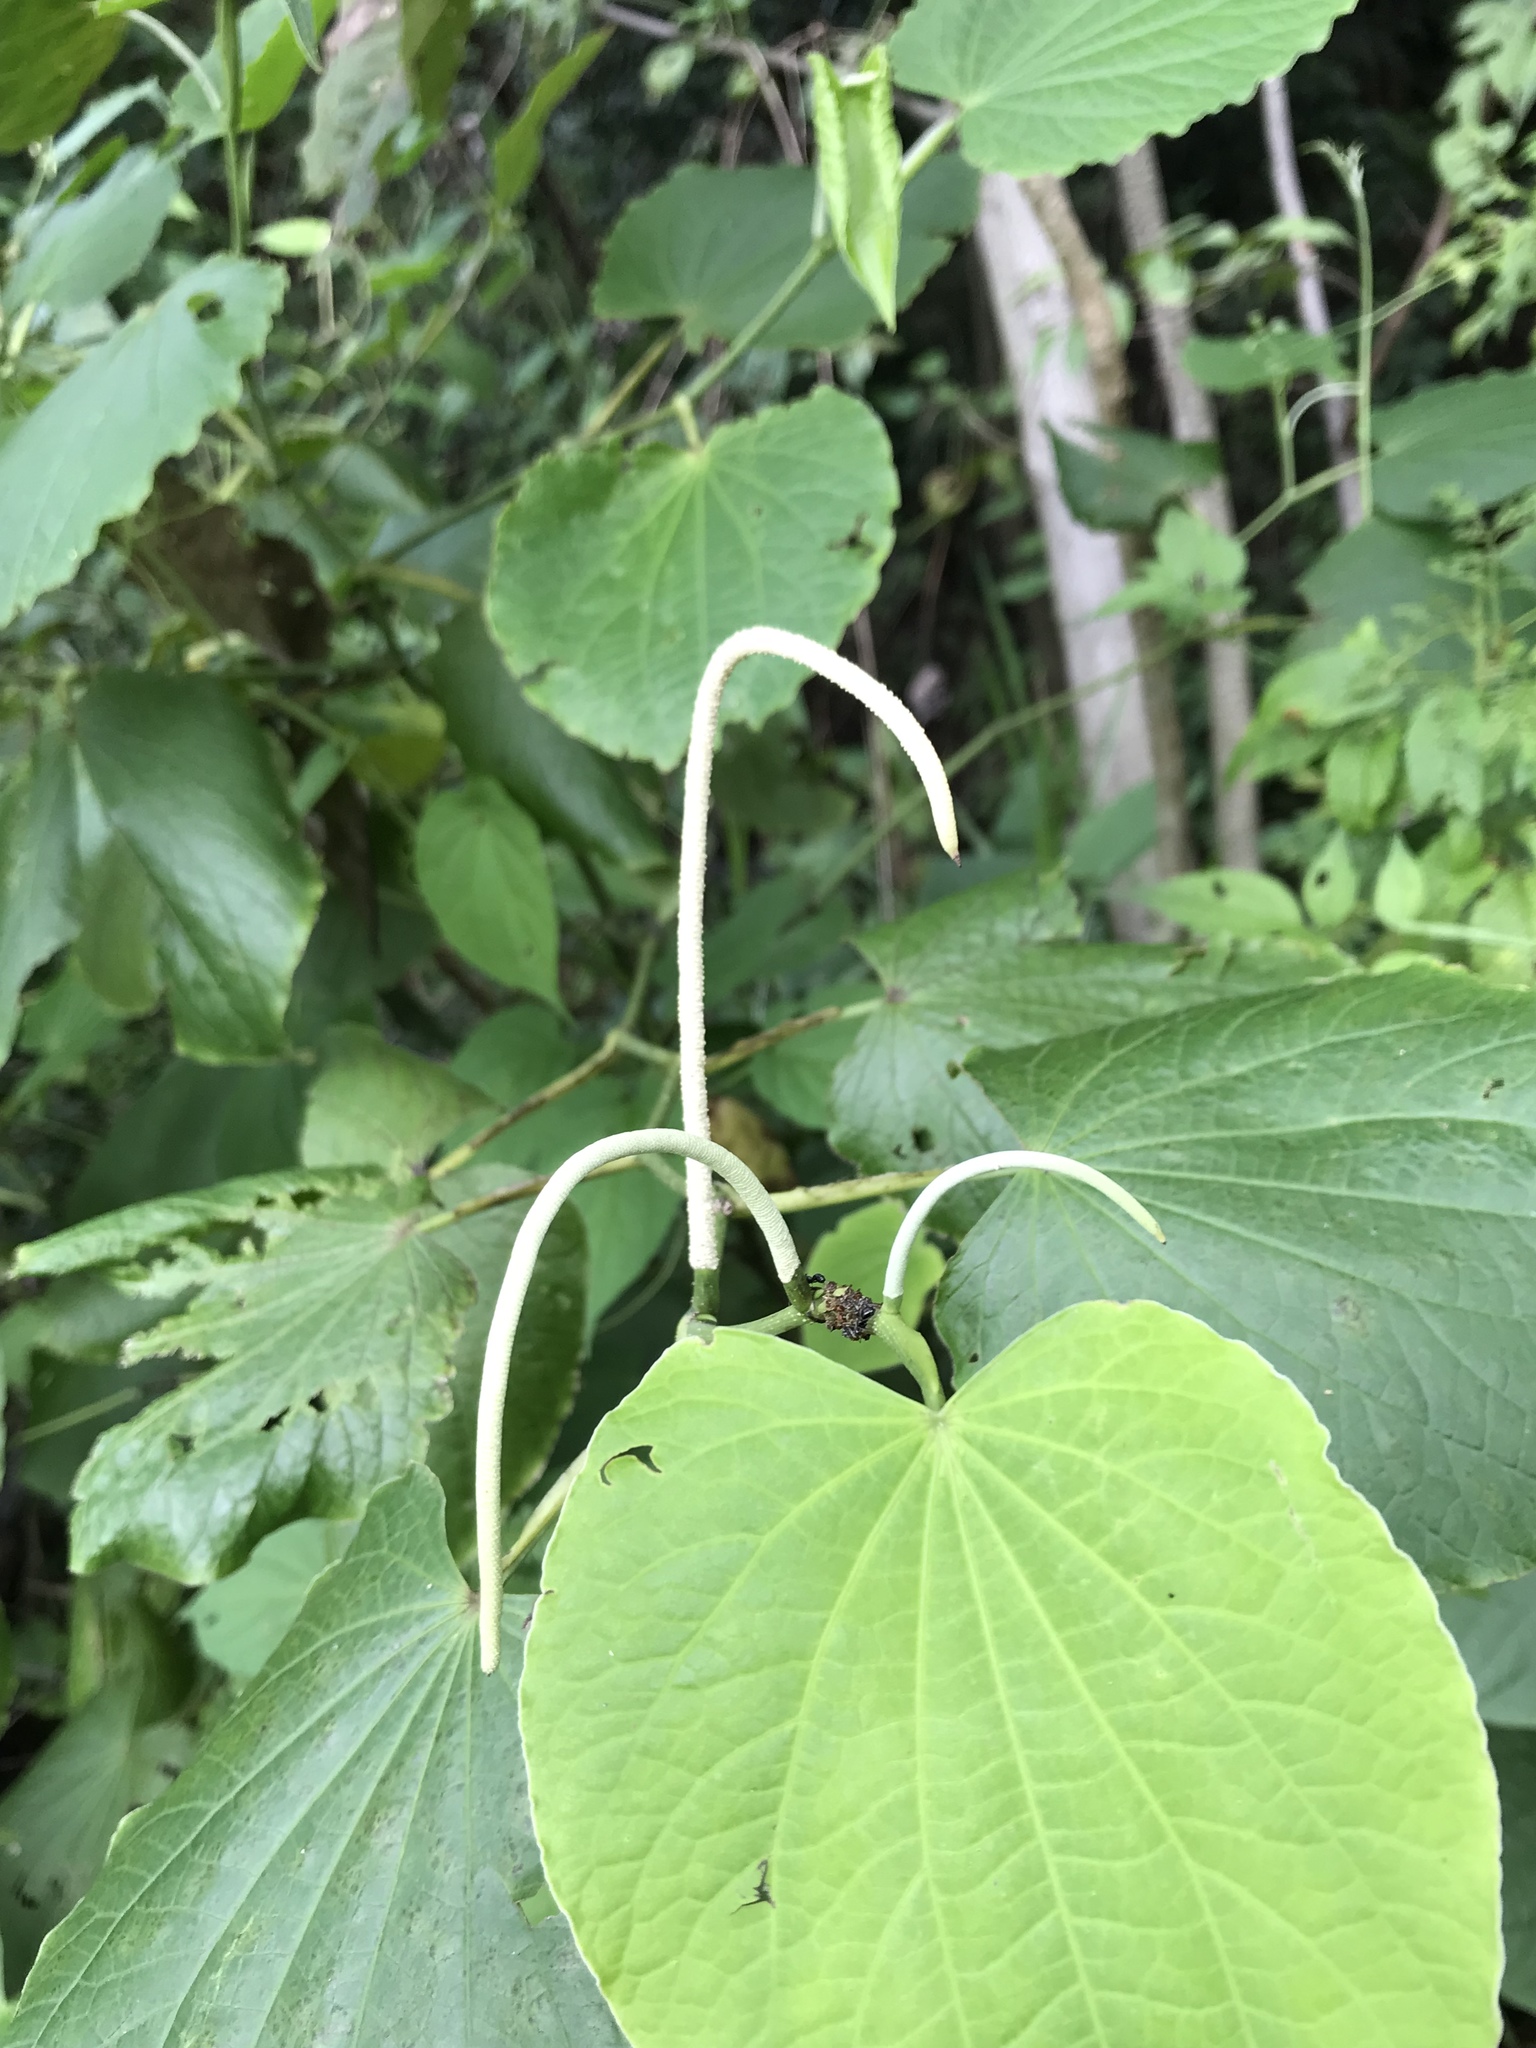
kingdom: Plantae
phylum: Tracheophyta
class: Magnoliopsida
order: Piperales
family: Piperaceae
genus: Piper
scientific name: Piper marginatum
